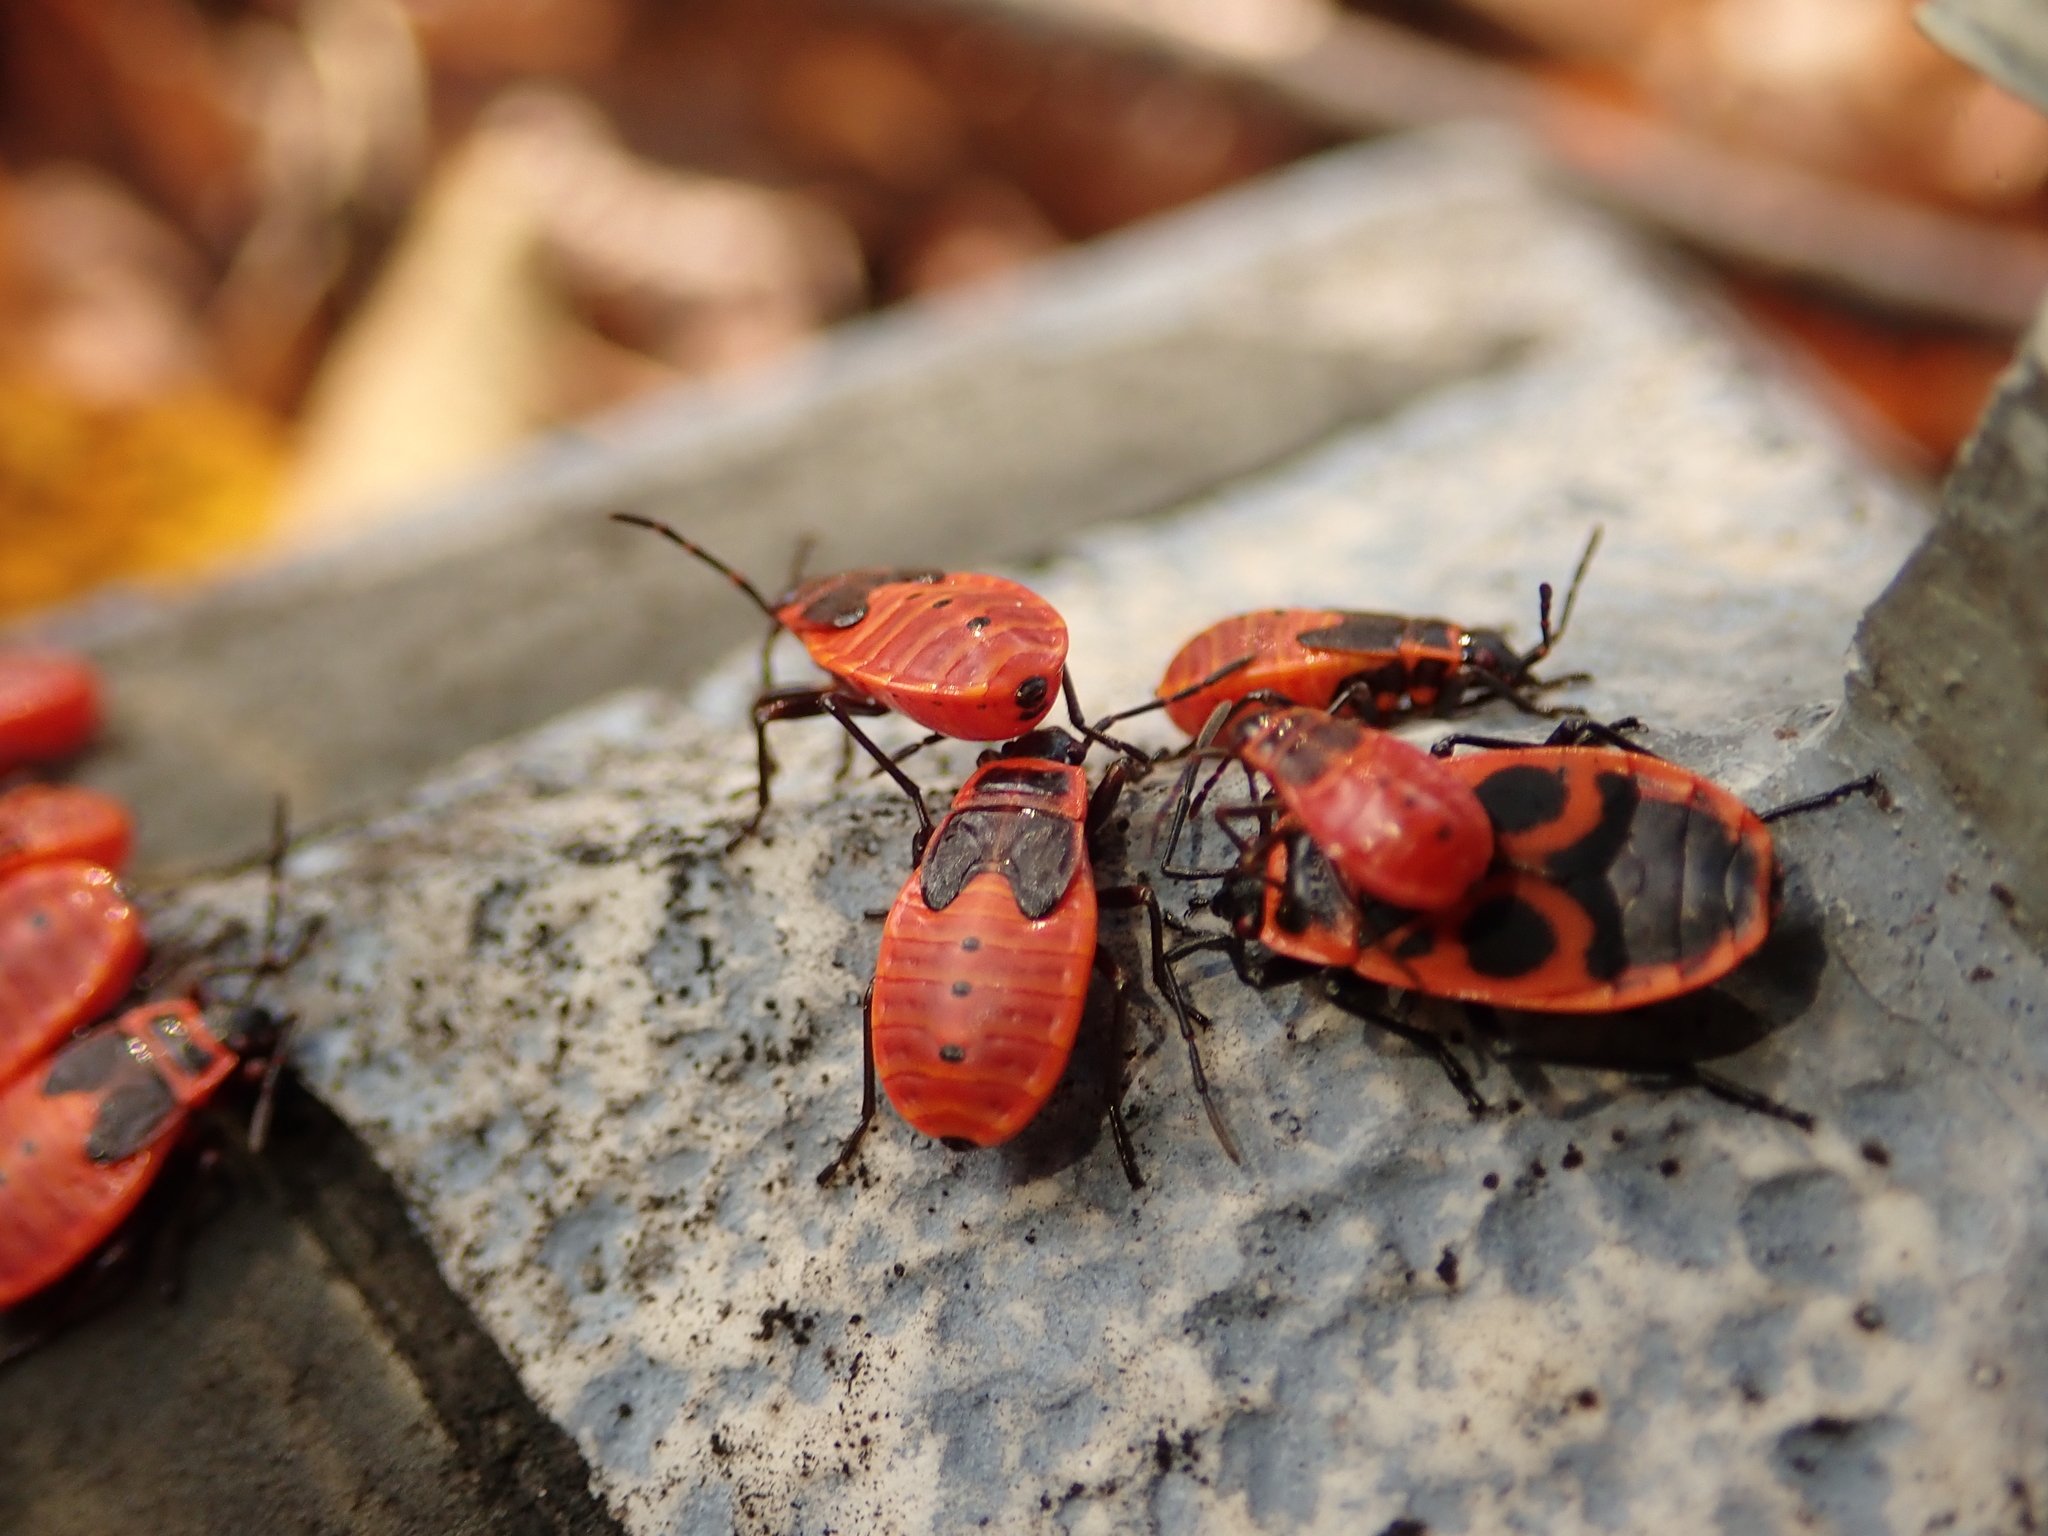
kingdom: Animalia
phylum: Arthropoda
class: Insecta
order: Hemiptera
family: Pyrrhocoridae
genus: Pyrrhocoris
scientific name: Pyrrhocoris apterus
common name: Firebug
